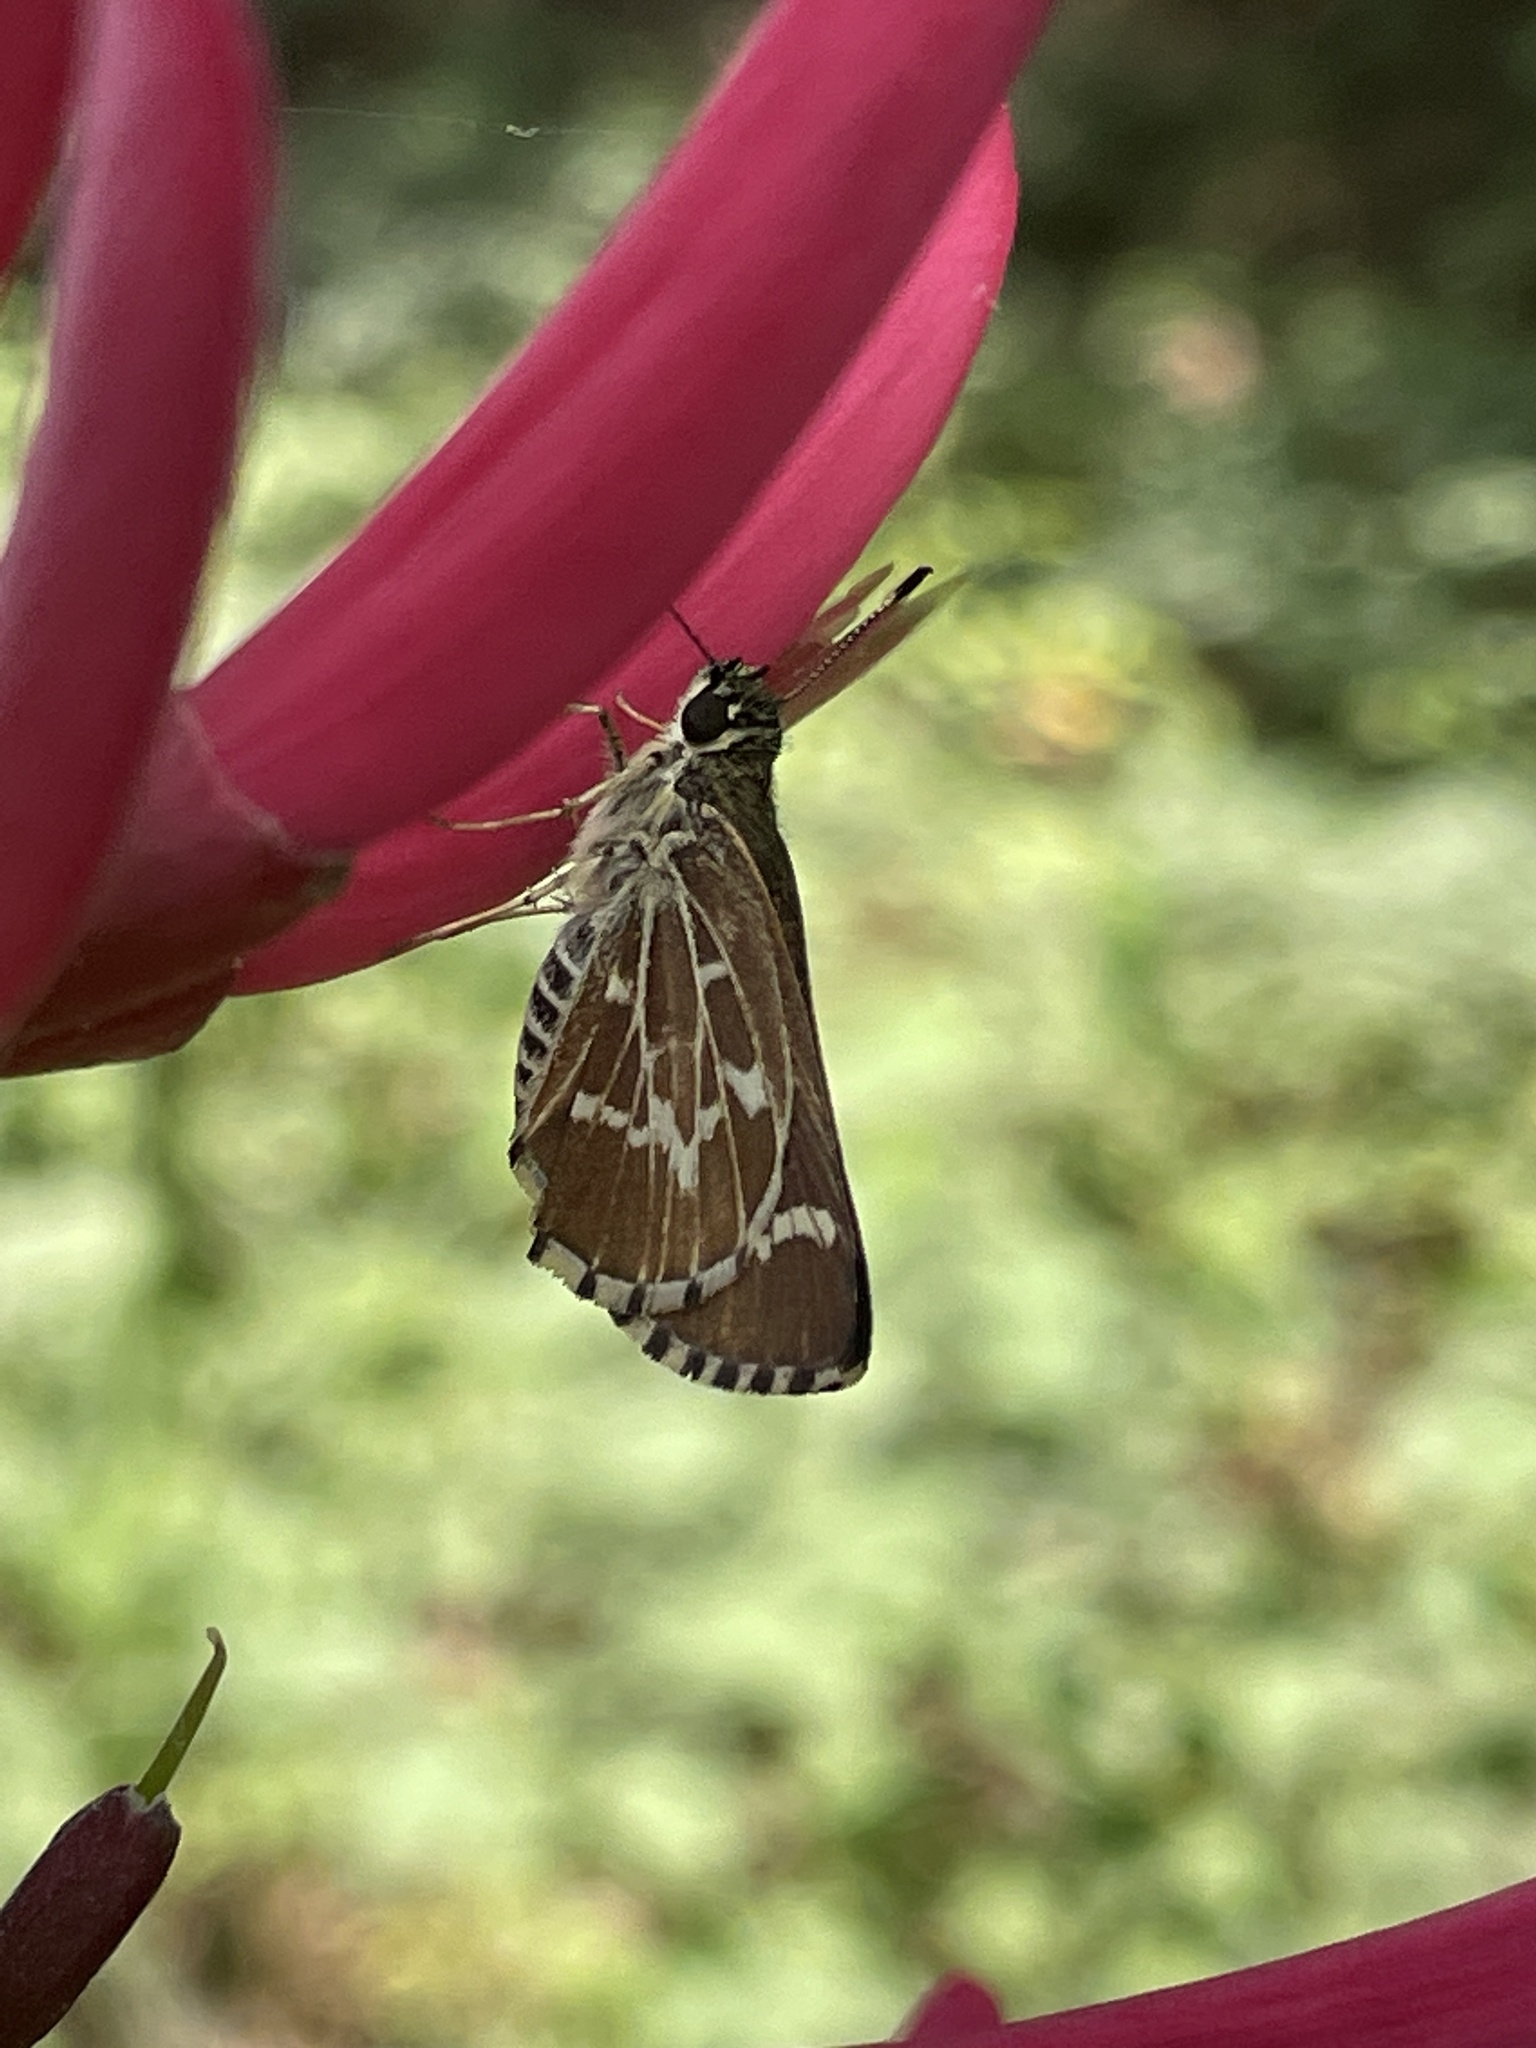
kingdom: Animalia
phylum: Arthropoda
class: Insecta
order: Lepidoptera
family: Hesperiidae
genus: Mastor
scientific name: Mastor aesculapius
